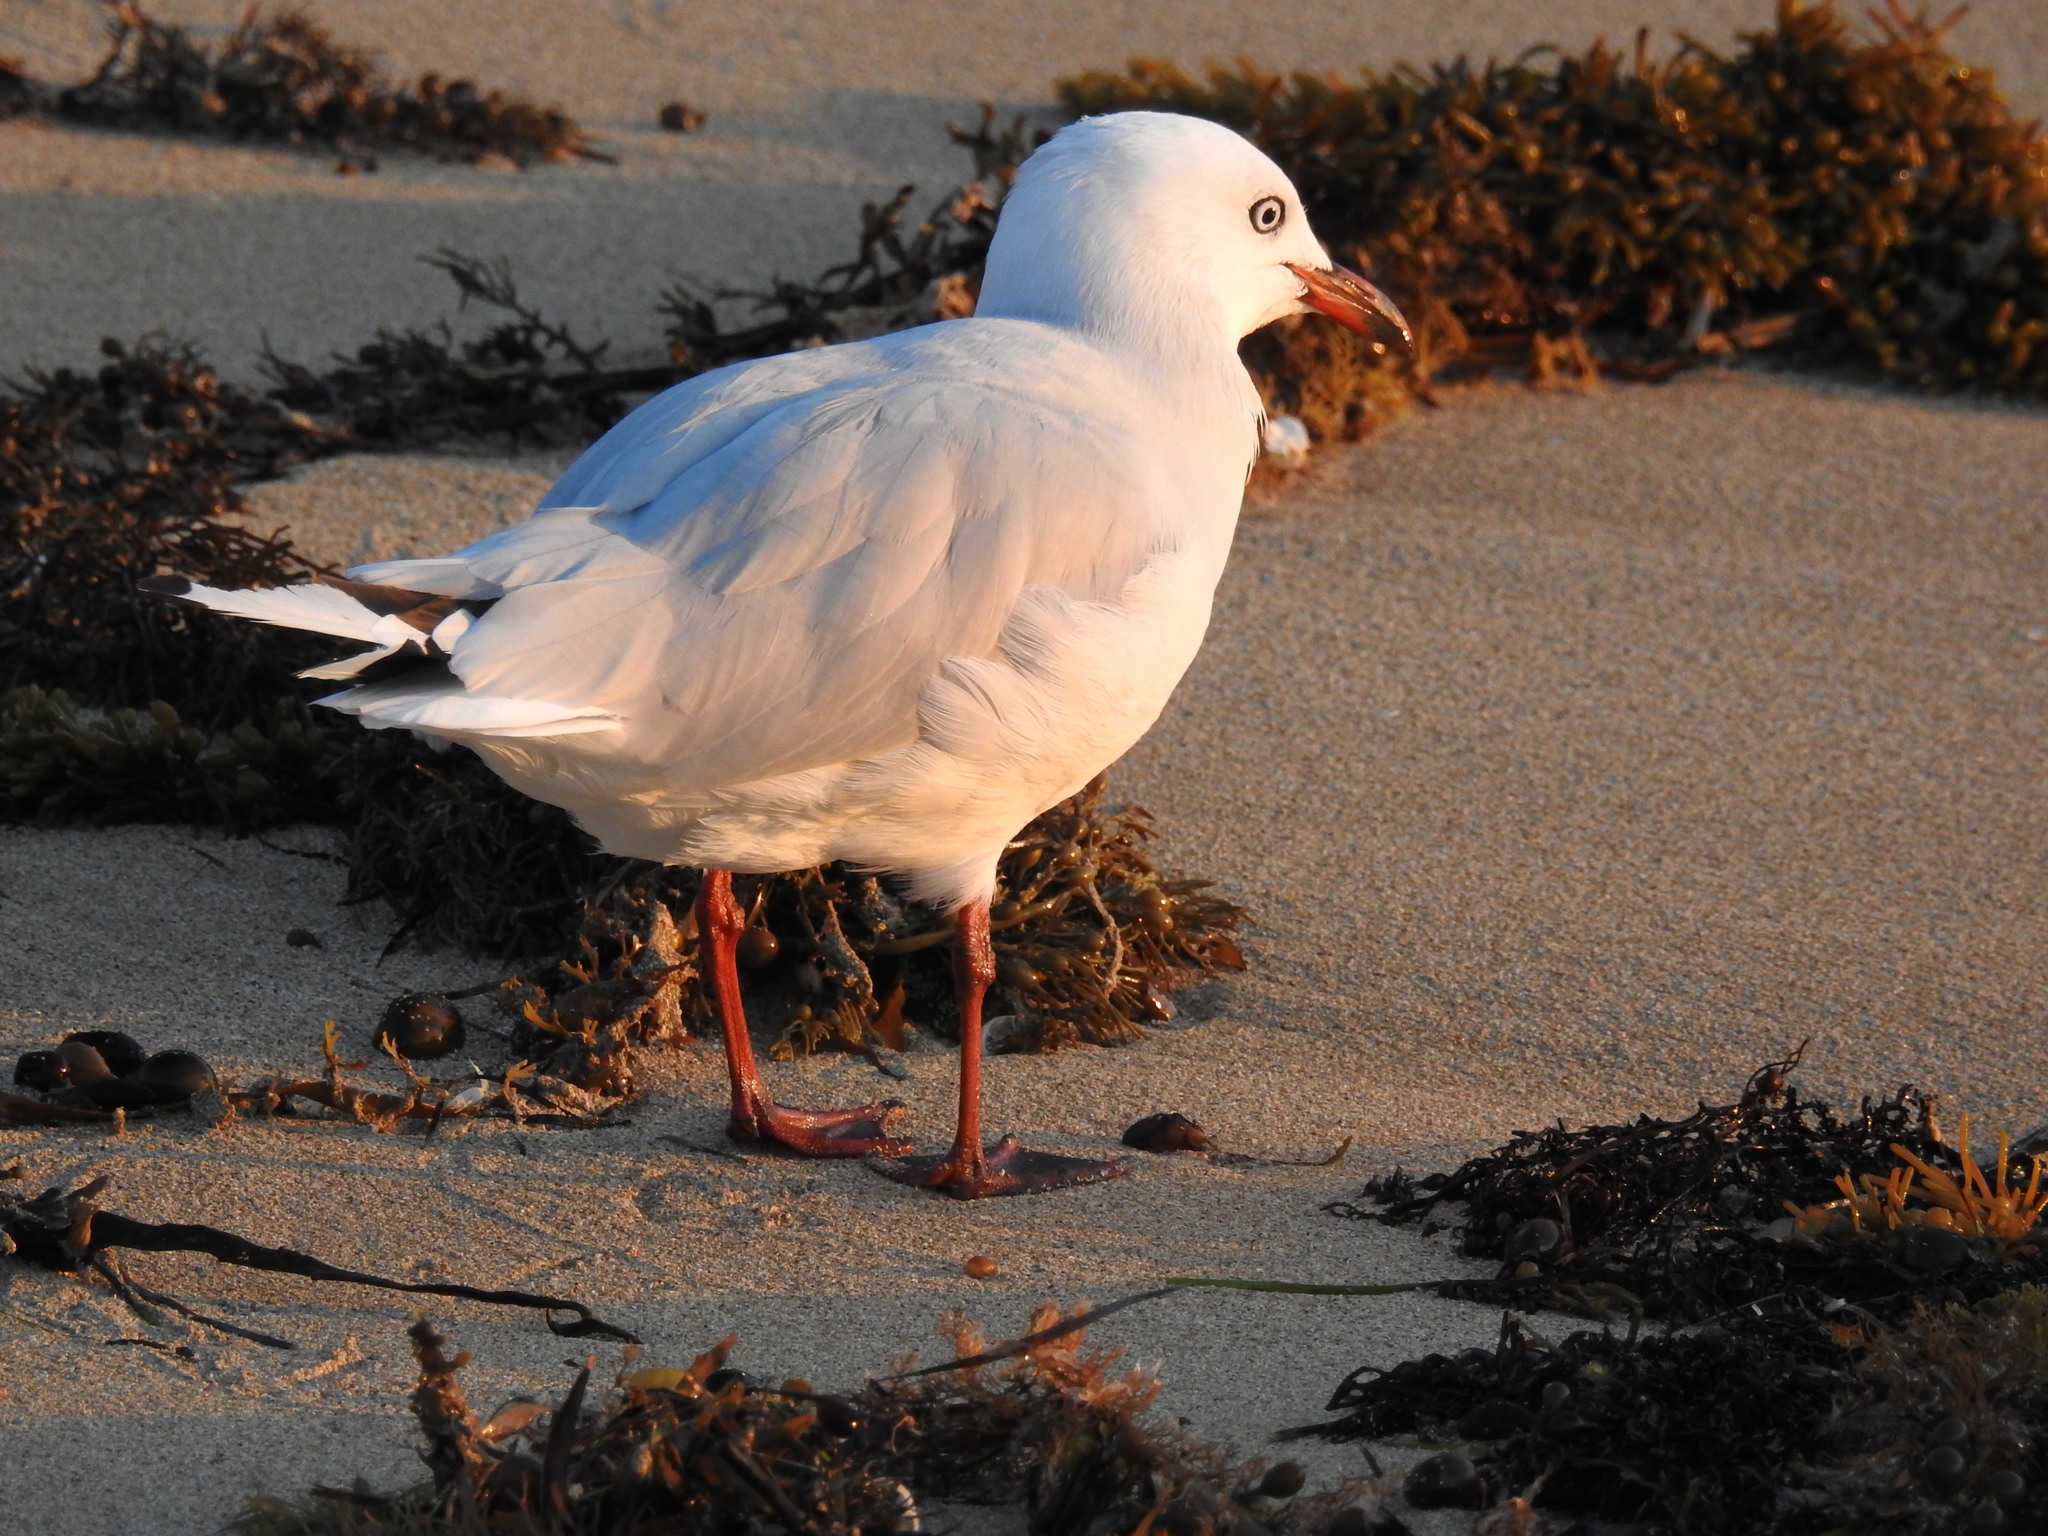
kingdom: Animalia
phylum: Chordata
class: Aves
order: Charadriiformes
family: Laridae
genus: Chroicocephalus
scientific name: Chroicocephalus novaehollandiae
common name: Silver gull
